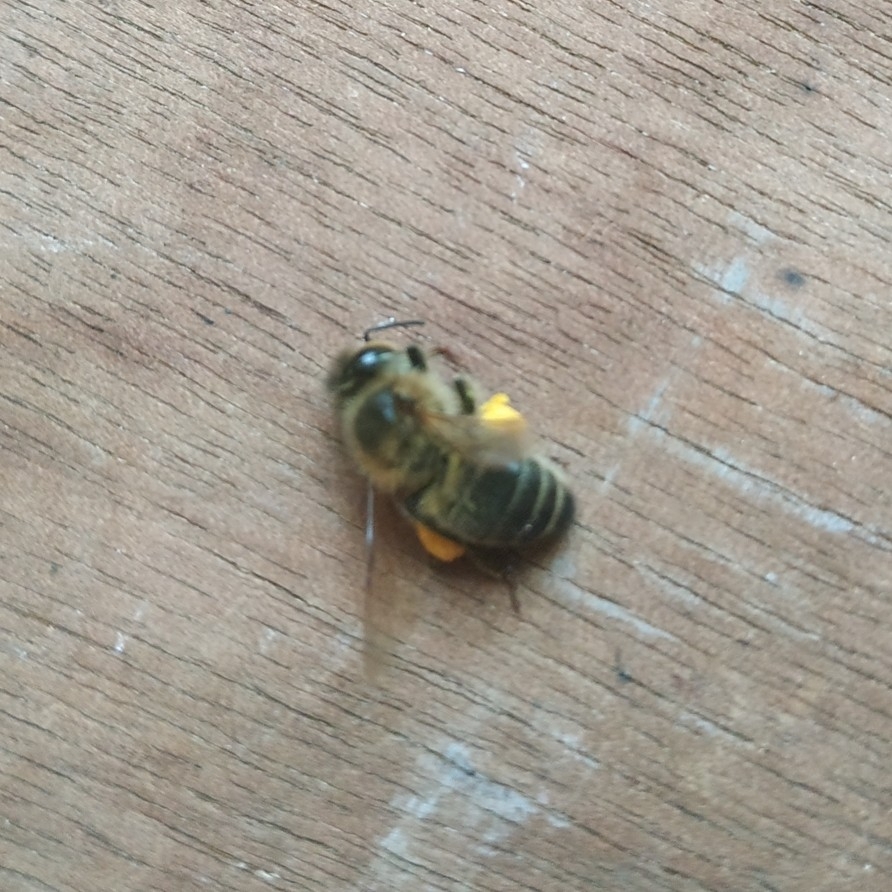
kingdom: Animalia
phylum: Arthropoda
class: Insecta
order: Hymenoptera
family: Apidae
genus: Apis
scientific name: Apis mellifera
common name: Honey bee
